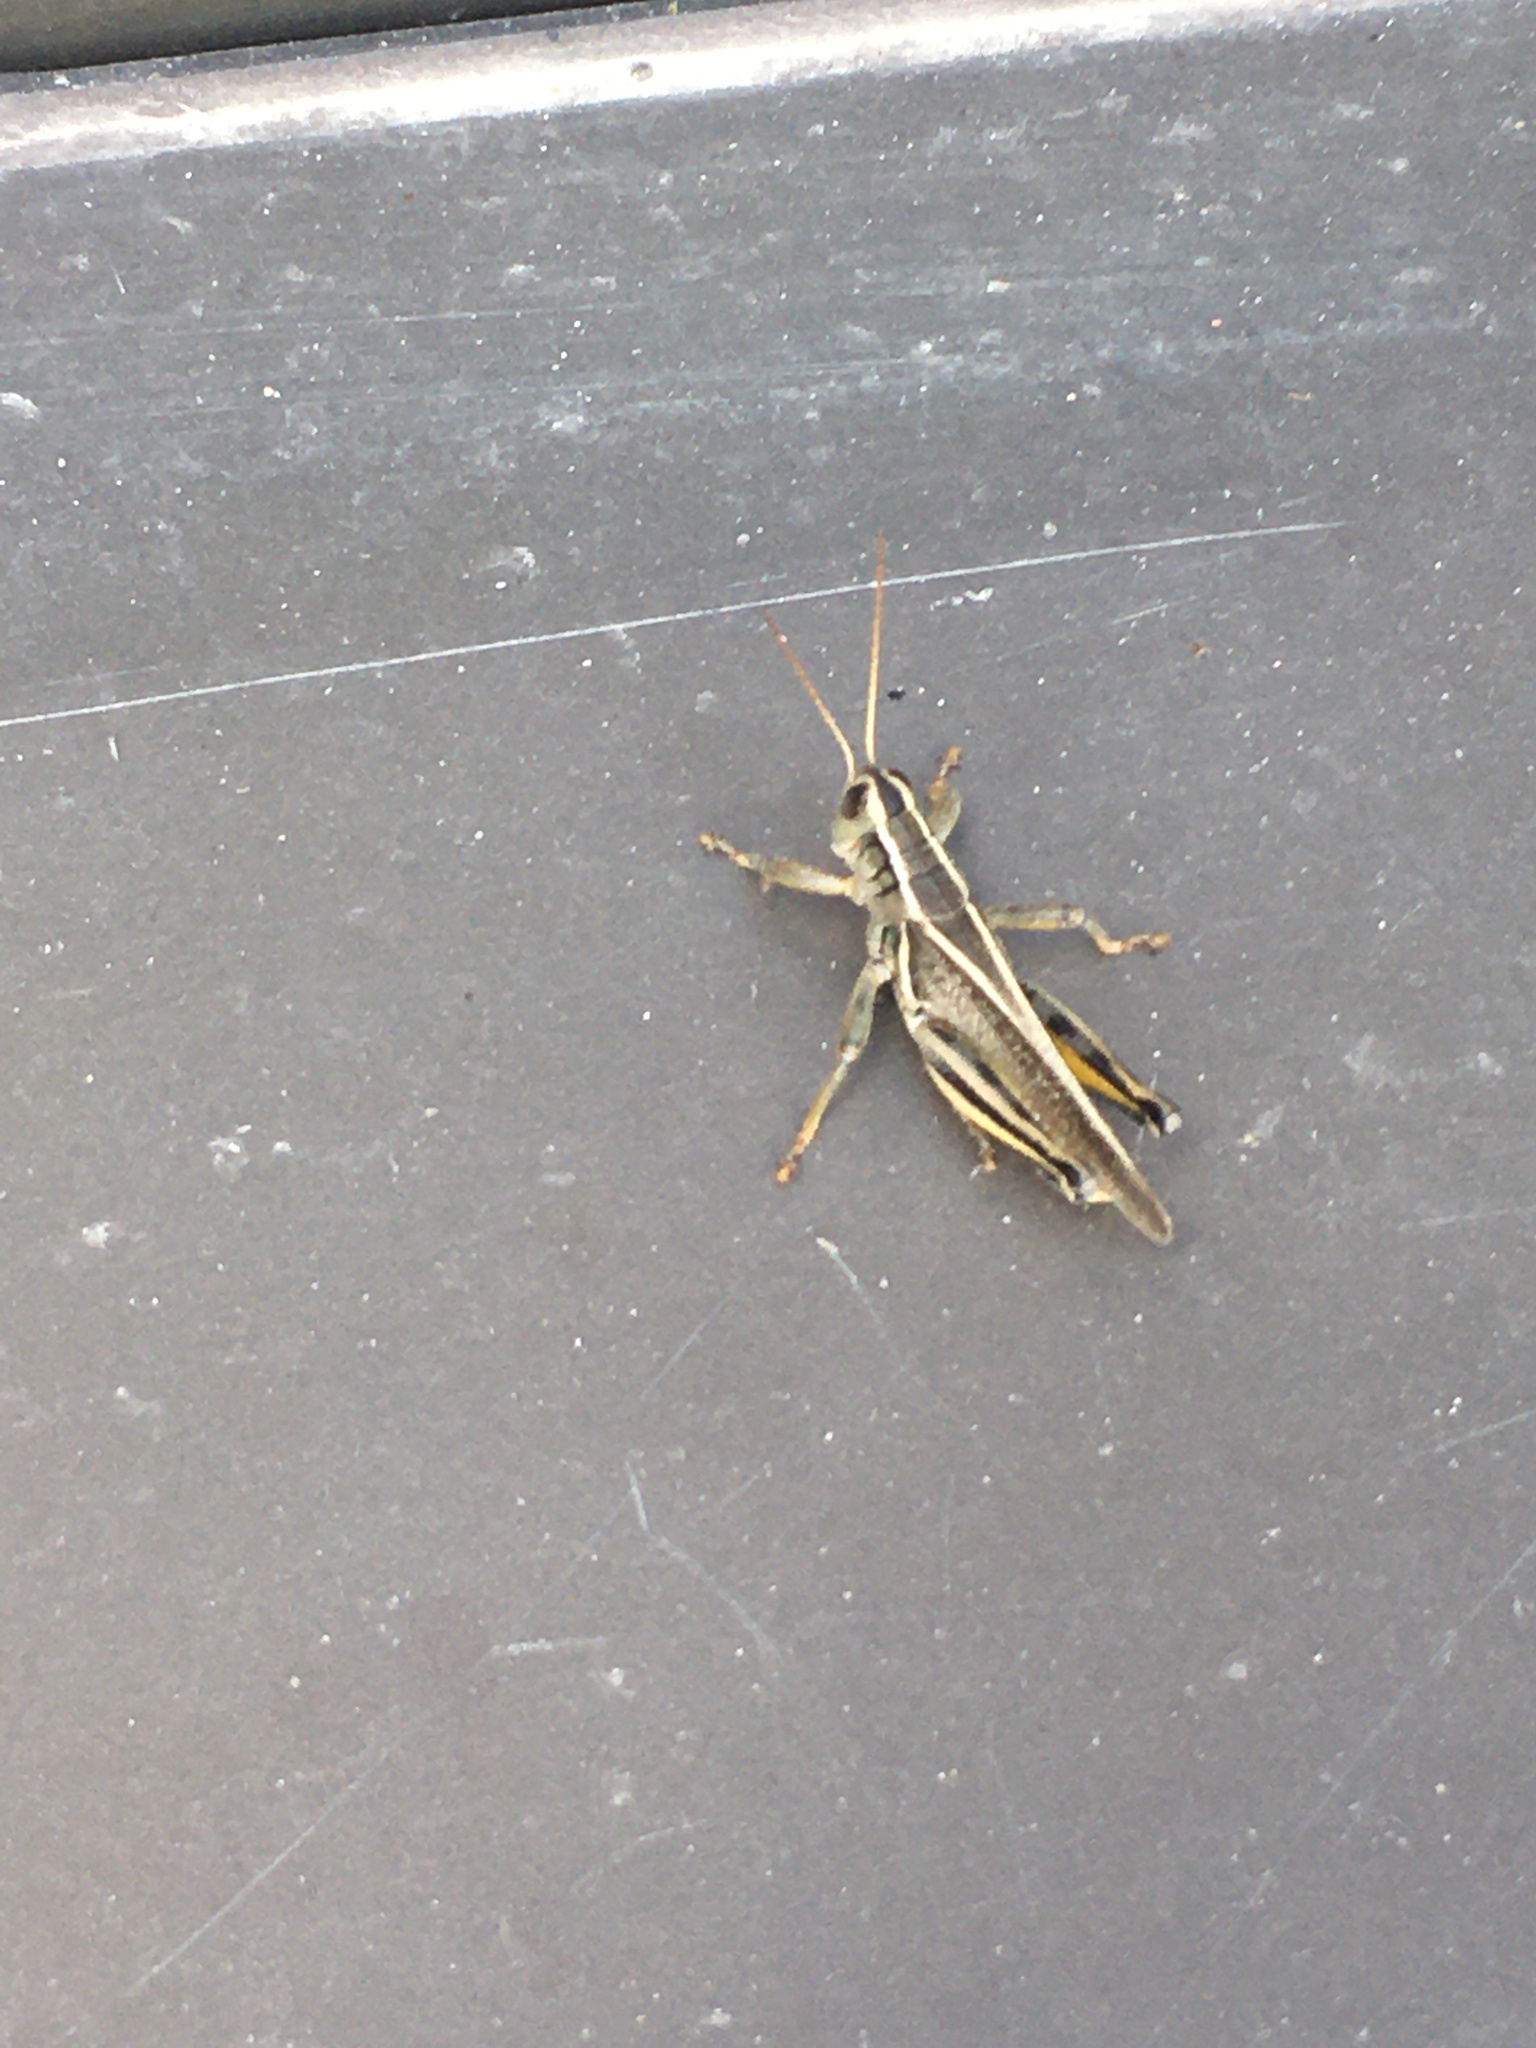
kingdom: Animalia
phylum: Arthropoda
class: Insecta
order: Orthoptera
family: Acrididae
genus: Melanoplus
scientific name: Melanoplus bivittatus
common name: Two-striped grasshopper
